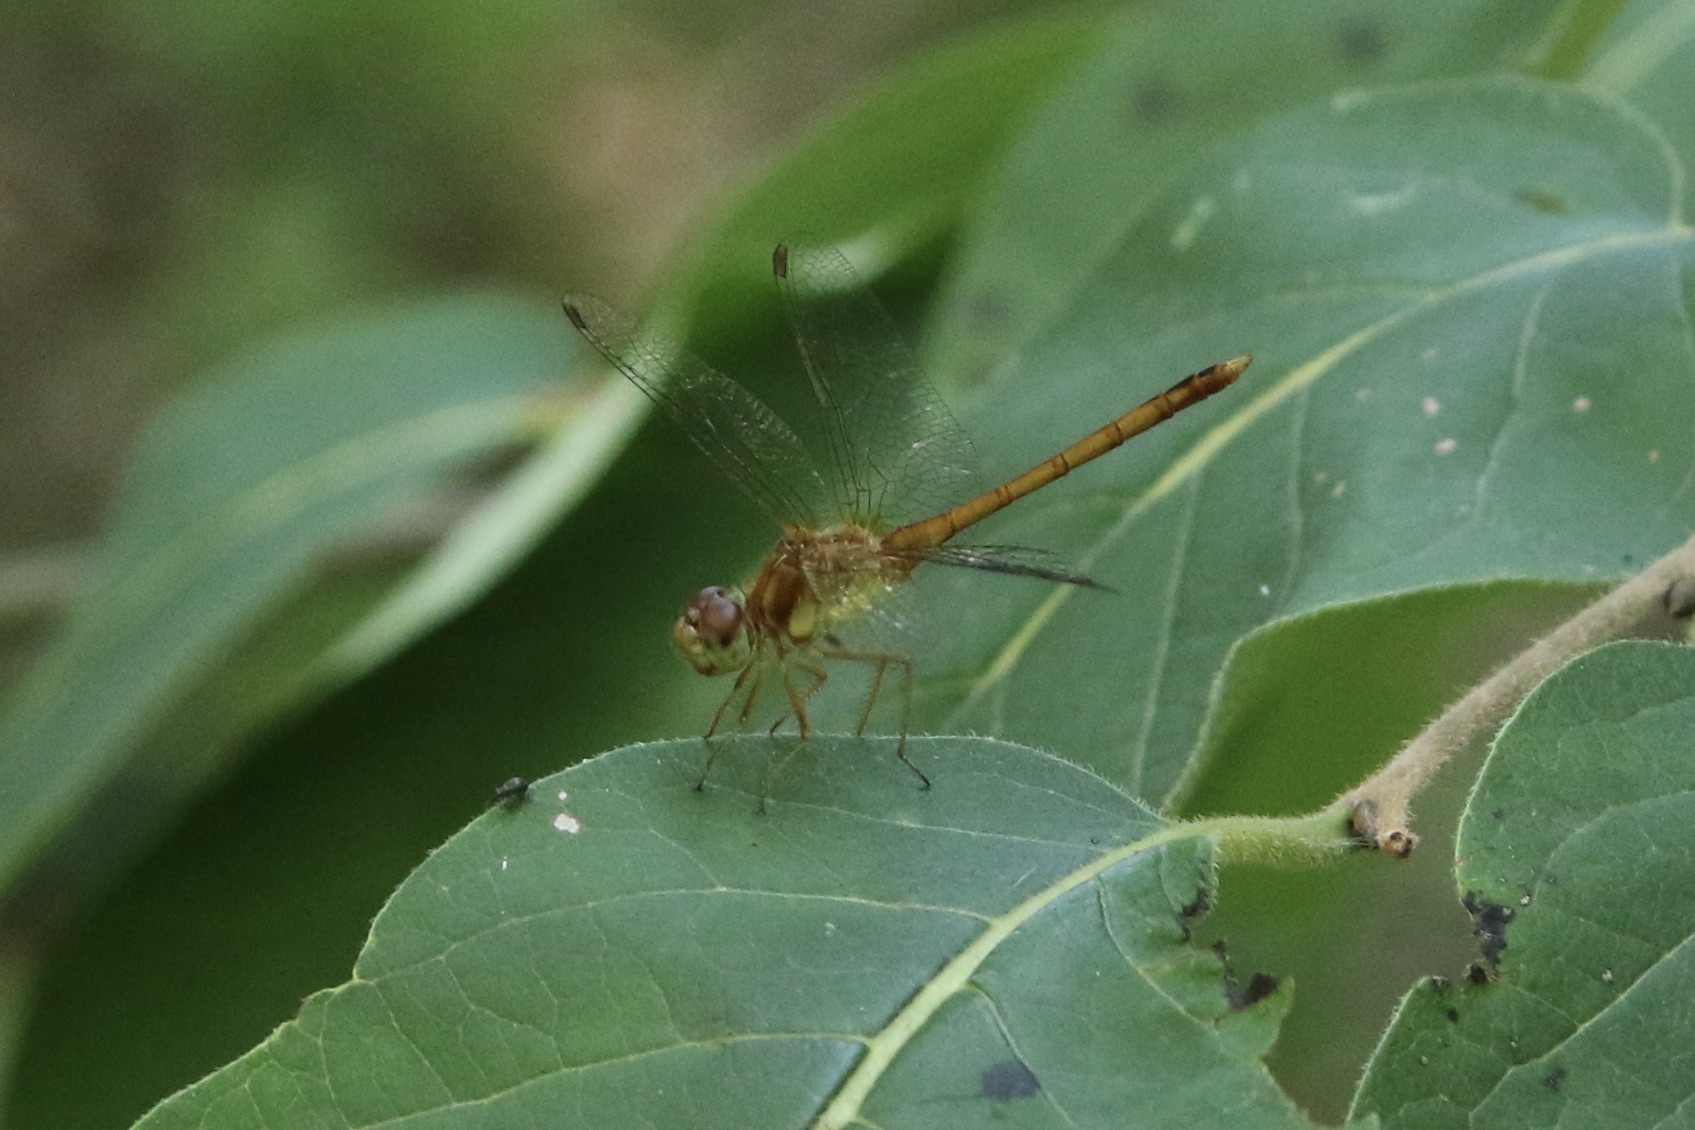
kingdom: Animalia
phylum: Arthropoda
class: Insecta
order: Odonata
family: Libellulidae
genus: Sympetrum
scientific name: Sympetrum vicinum
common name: Autumn meadowhawk
